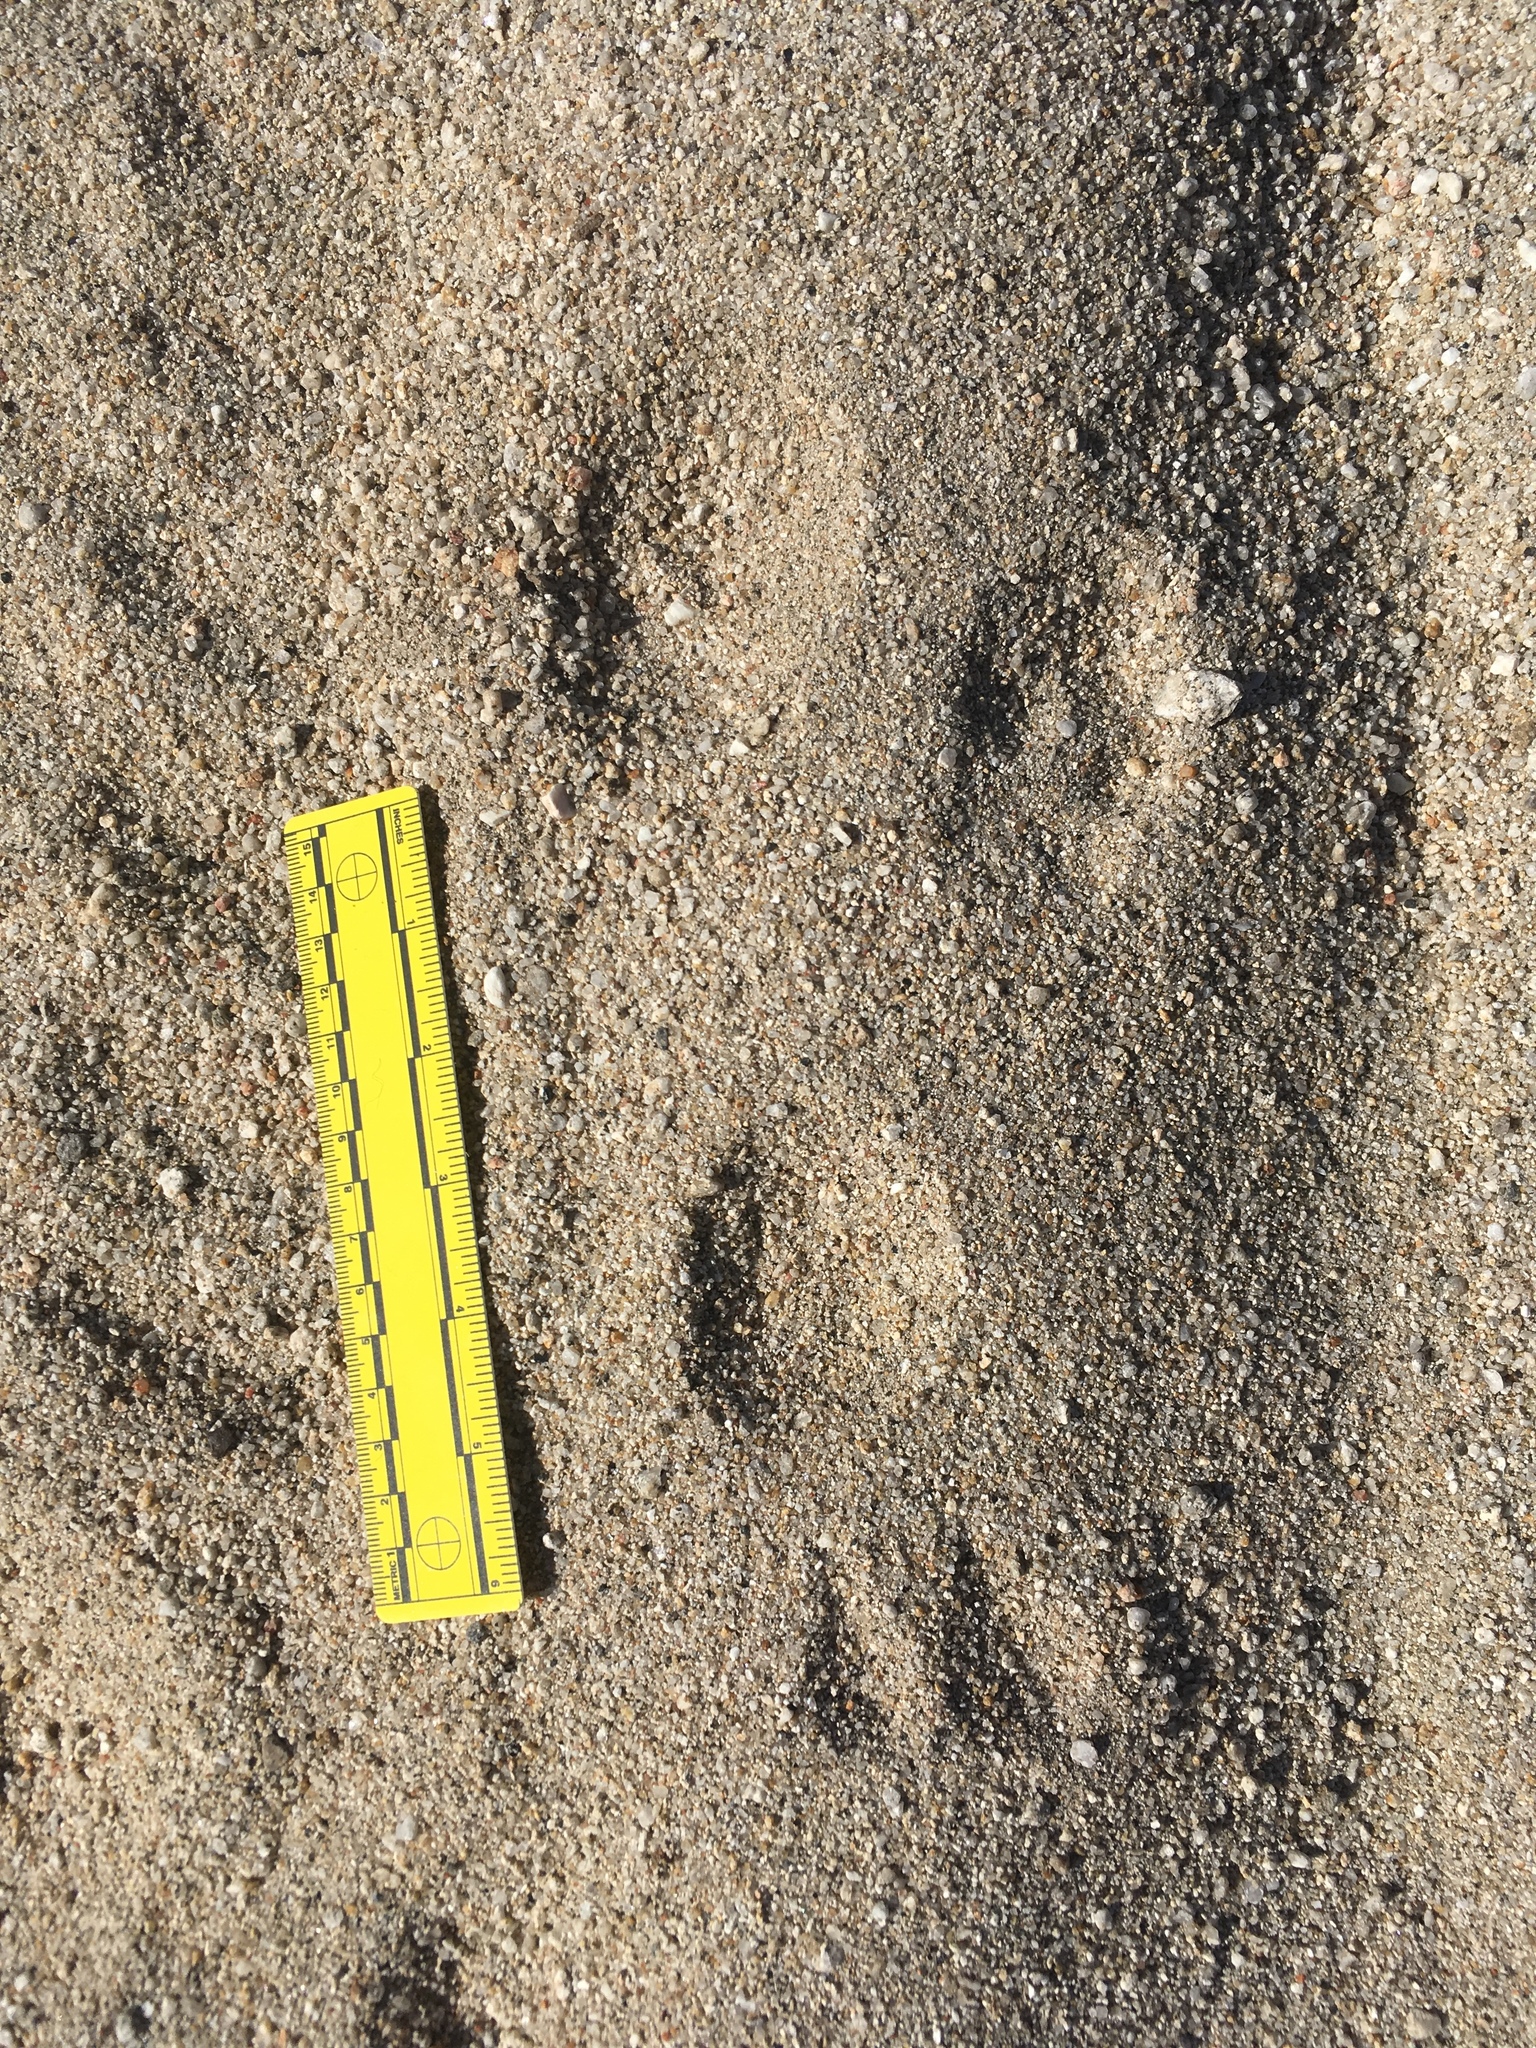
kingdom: Animalia
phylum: Chordata
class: Mammalia
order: Lagomorpha
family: Leporidae
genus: Lepus
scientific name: Lepus californicus
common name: Black-tailed jackrabbit
